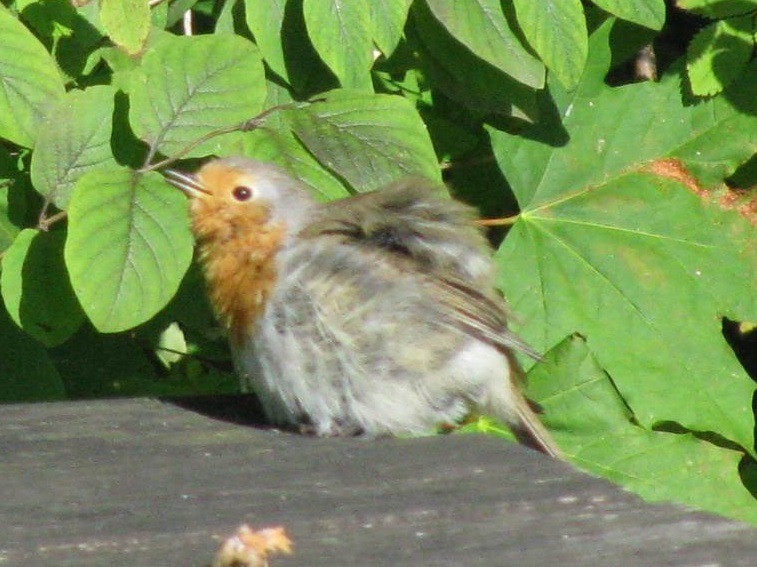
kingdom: Animalia
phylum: Chordata
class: Aves
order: Passeriformes
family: Muscicapidae
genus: Erithacus
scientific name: Erithacus rubecula
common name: European robin
